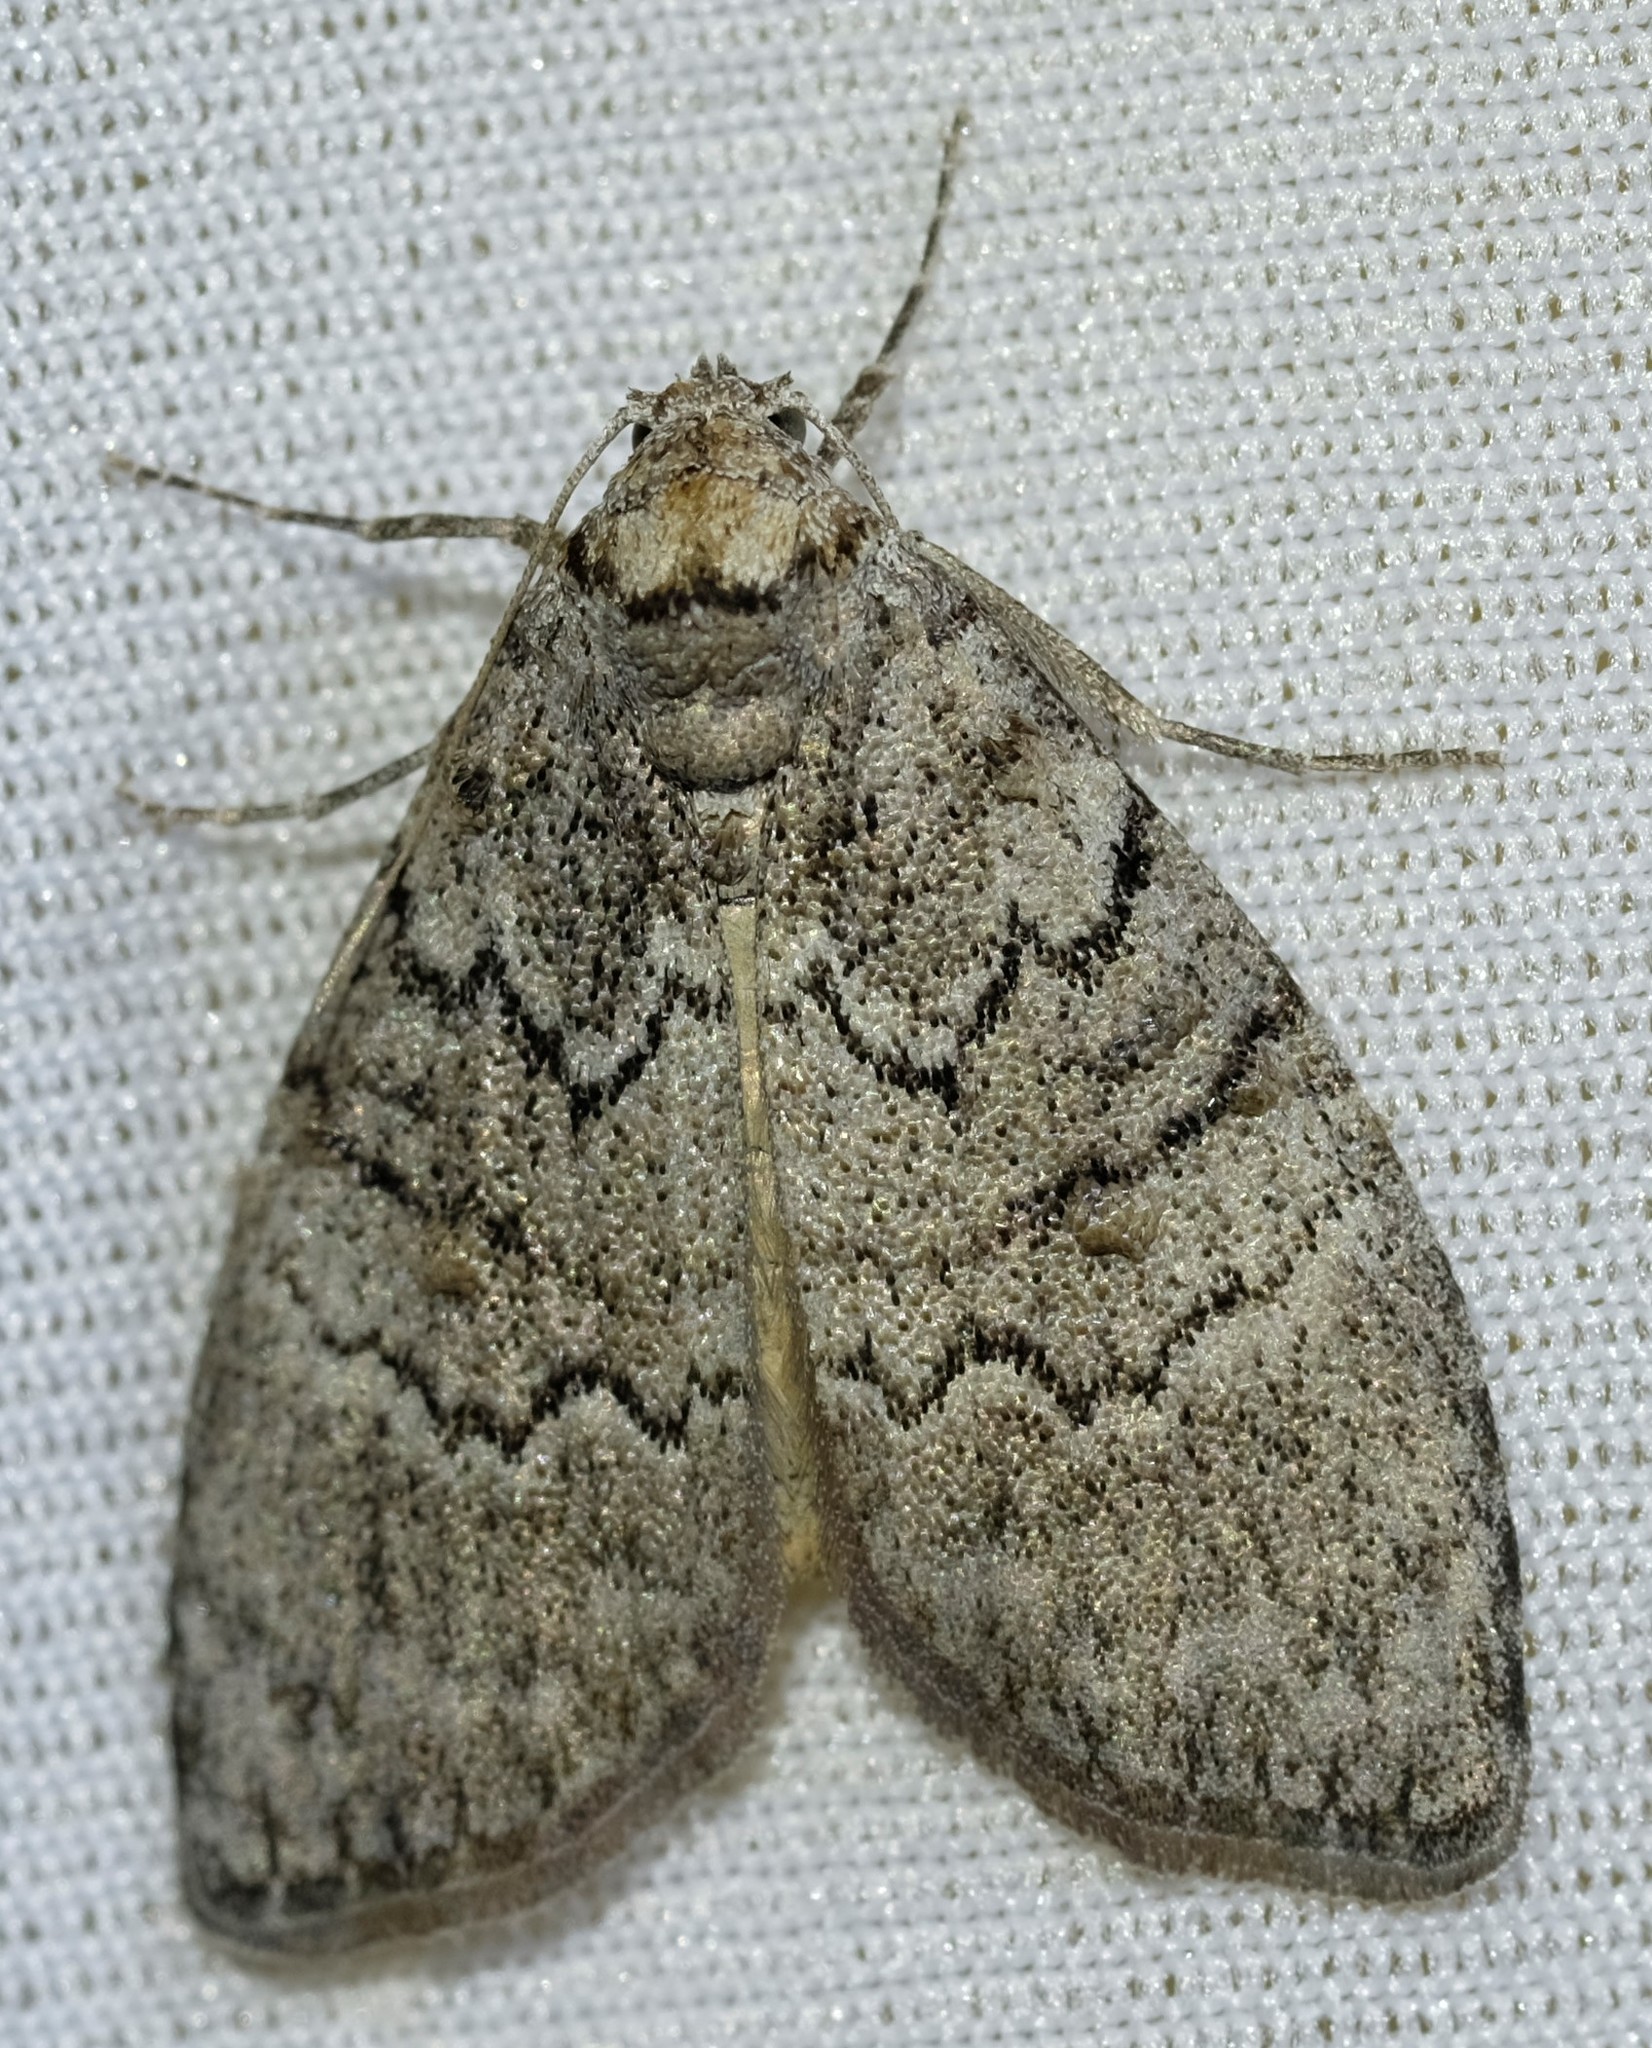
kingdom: Animalia
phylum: Arthropoda
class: Insecta
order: Lepidoptera
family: Nolidae
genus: Uraba
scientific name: Uraba lugens
